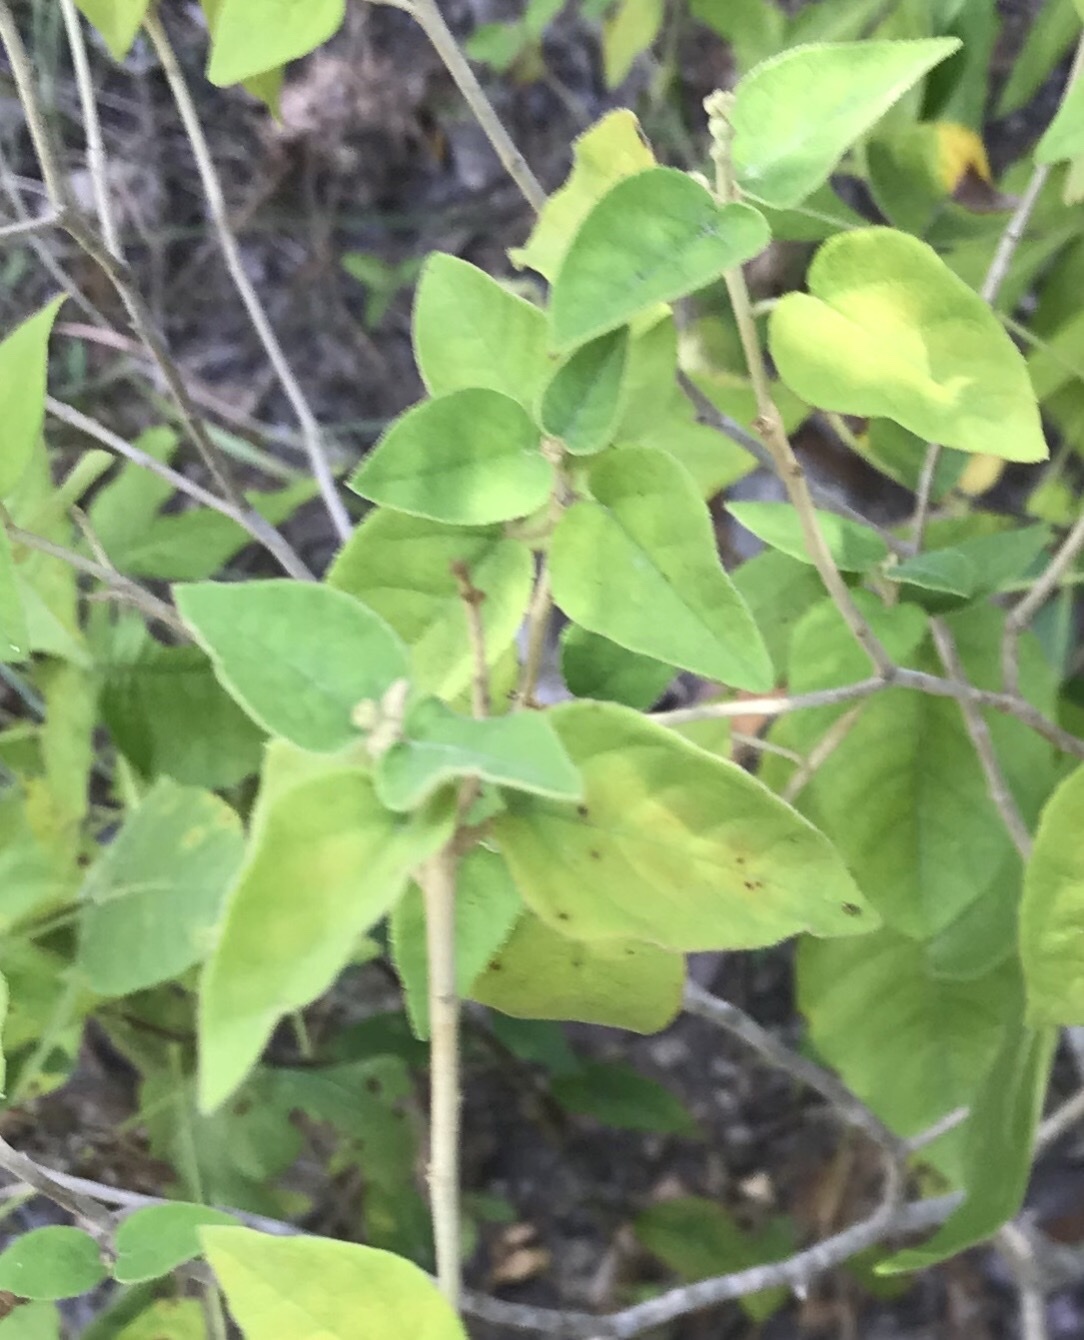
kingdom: Plantae
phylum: Tracheophyta
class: Magnoliopsida
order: Malpighiales
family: Euphorbiaceae
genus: Croton
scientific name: Croton fruticulosus
